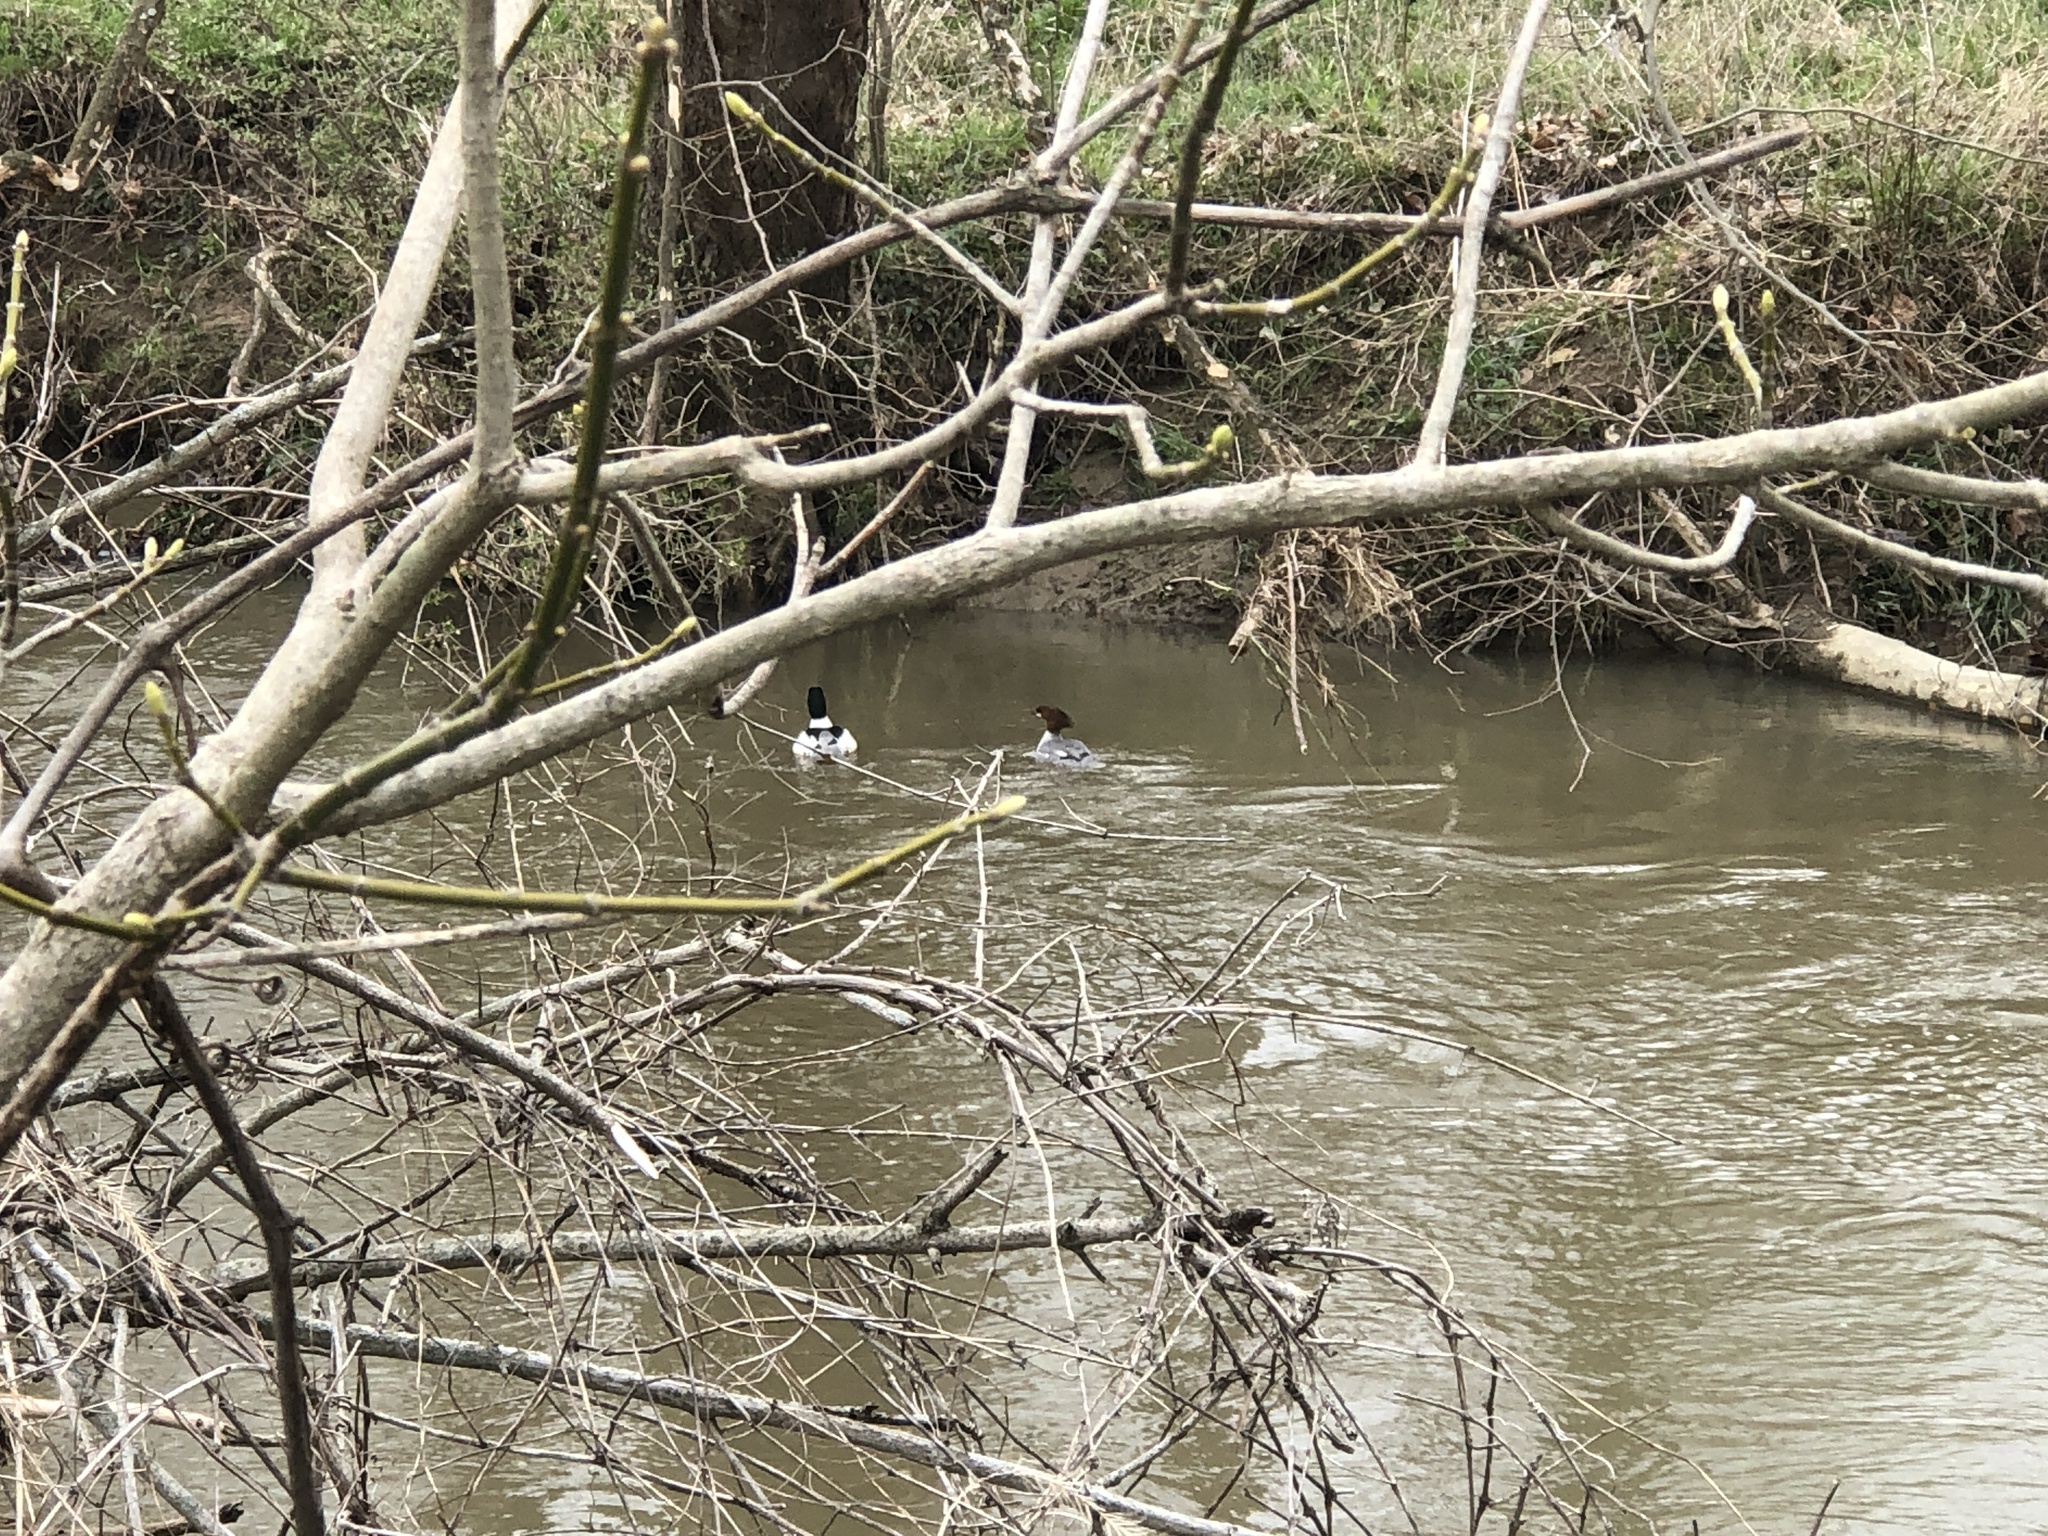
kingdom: Animalia
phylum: Chordata
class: Aves
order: Anseriformes
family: Anatidae
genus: Mergus
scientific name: Mergus merganser
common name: Common merganser
